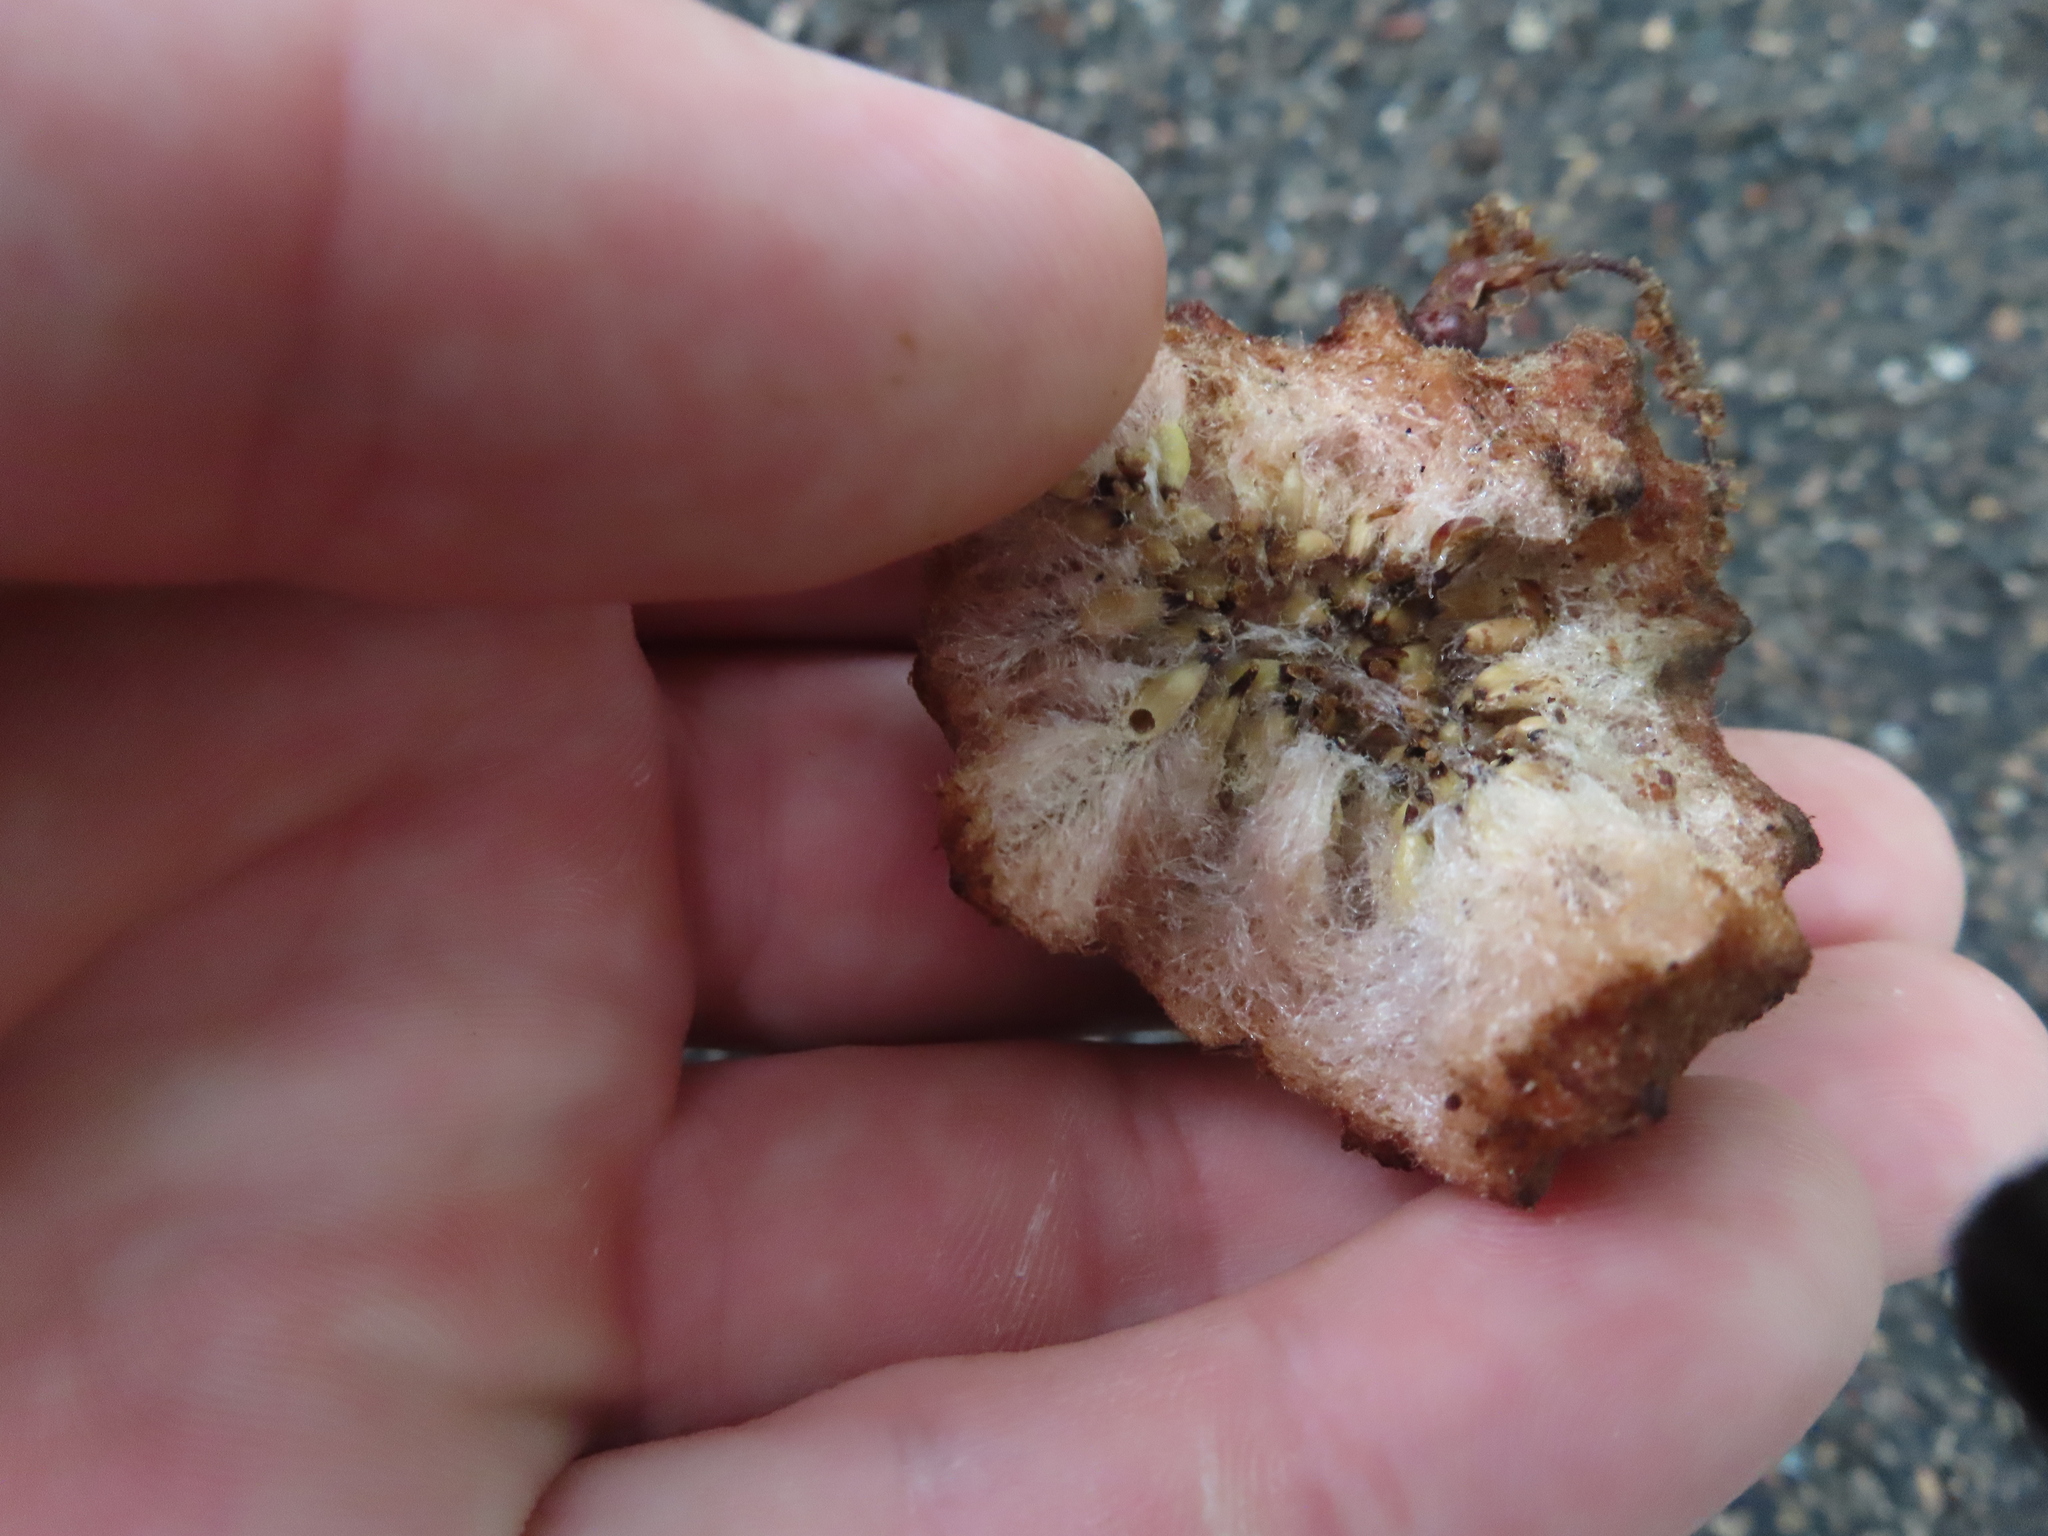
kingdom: Animalia
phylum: Arthropoda
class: Insecta
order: Hymenoptera
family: Cynipidae
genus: Callirhytis
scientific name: Callirhytis
